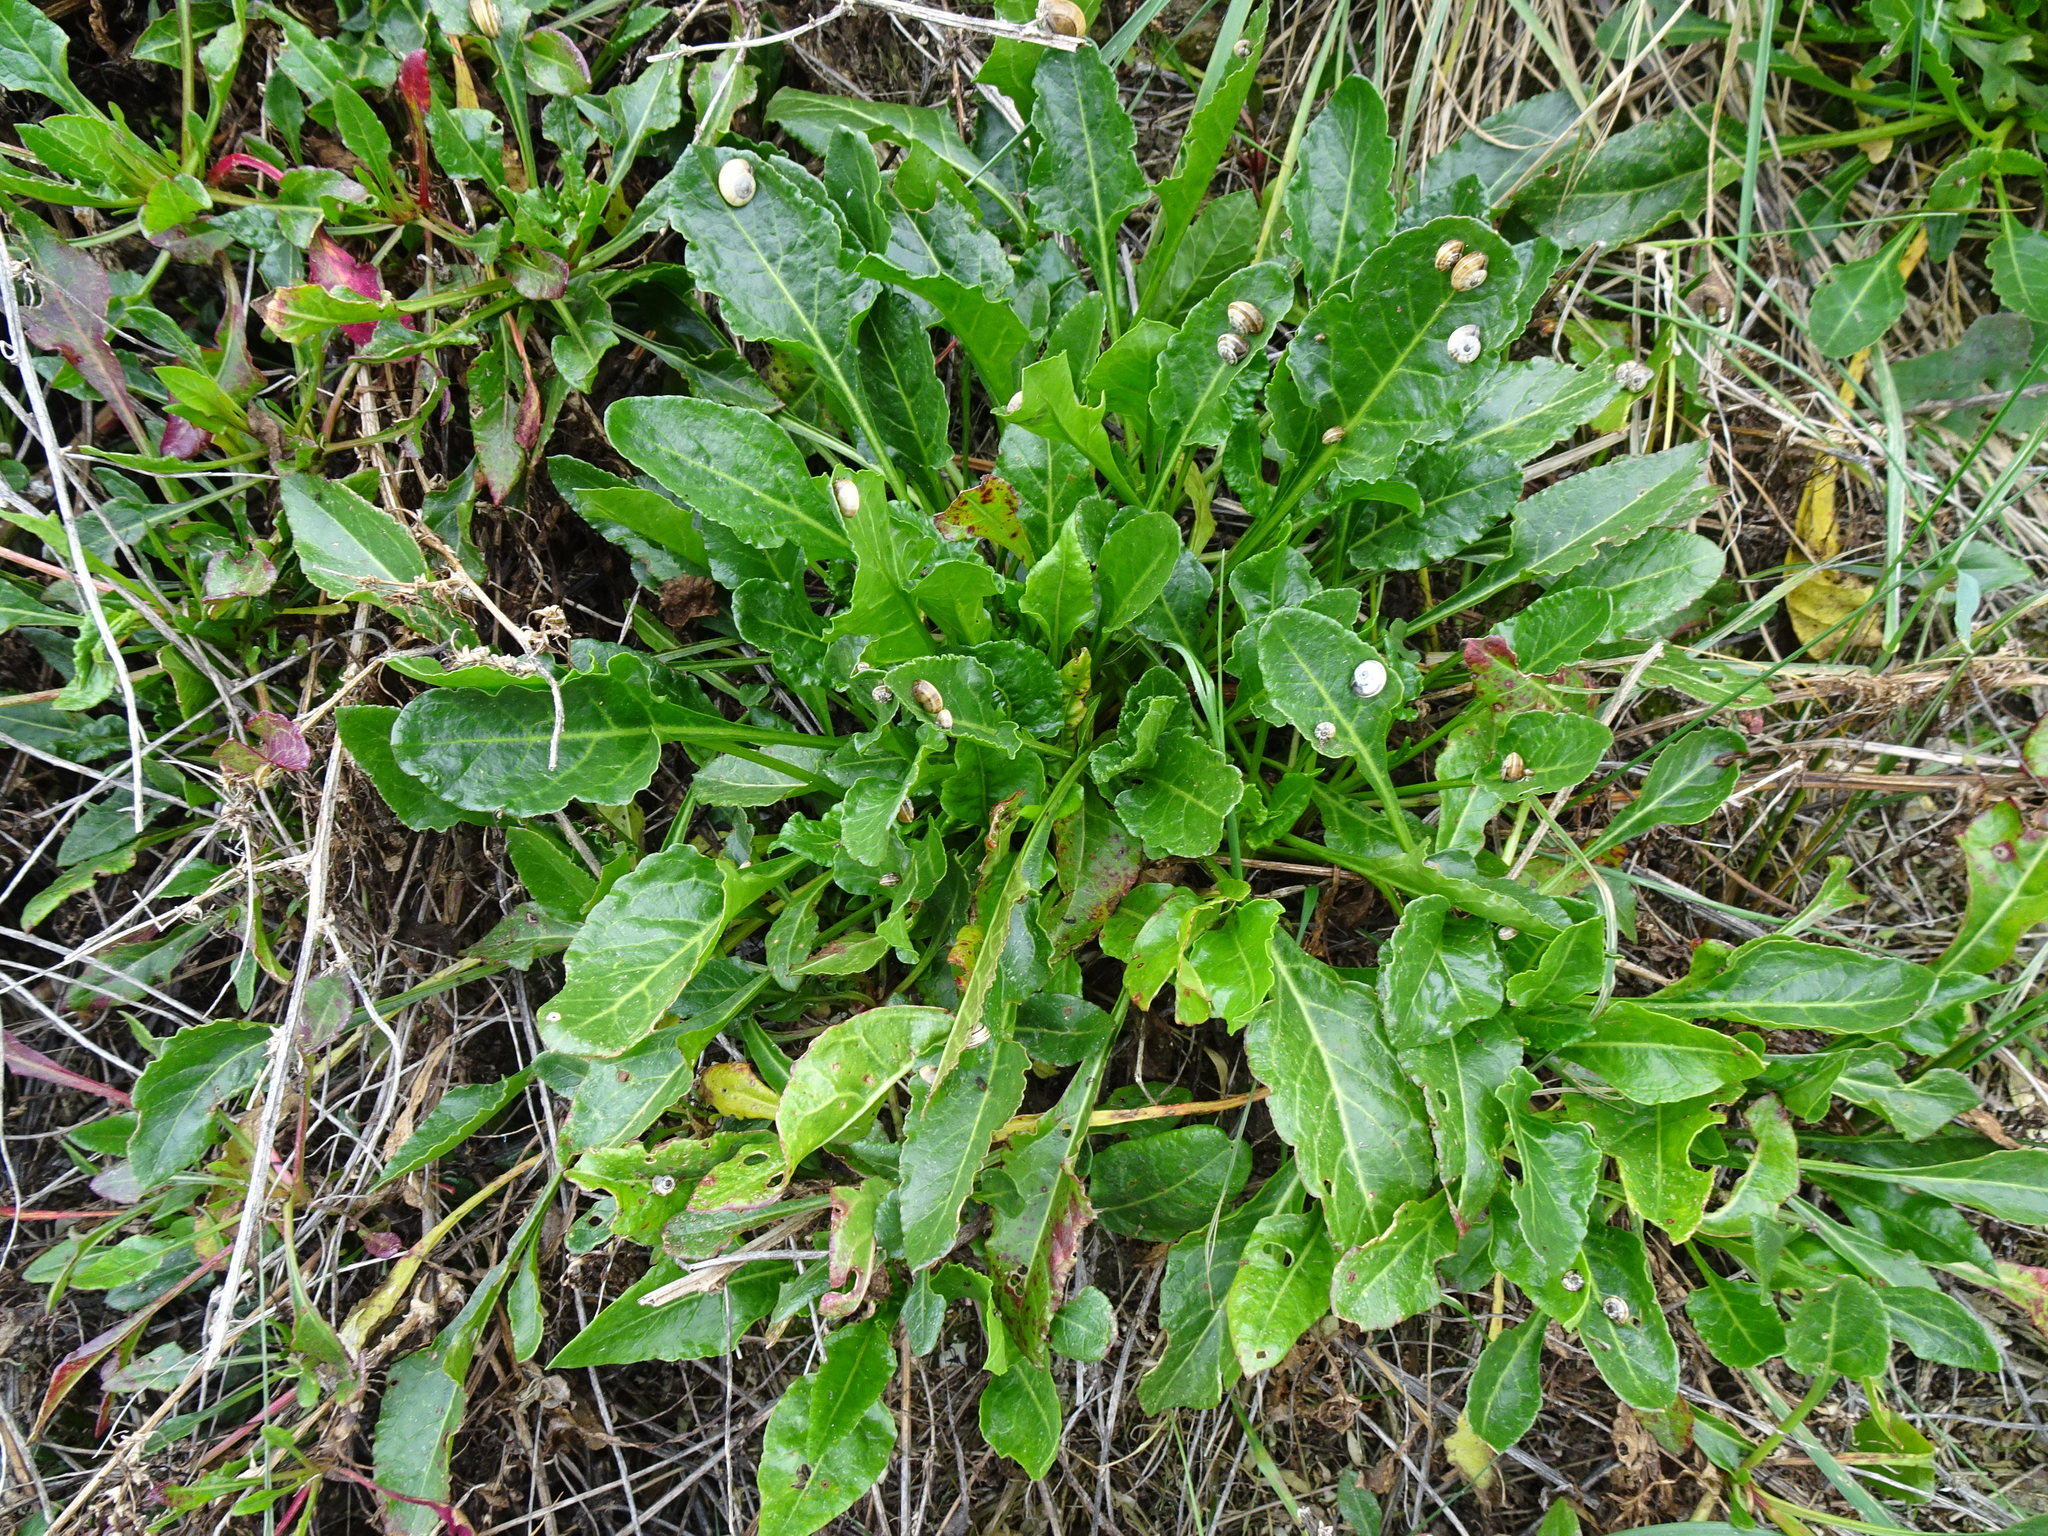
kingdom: Plantae
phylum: Tracheophyta
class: Magnoliopsida
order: Caryophyllales
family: Amaranthaceae
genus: Beta
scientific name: Beta vulgaris
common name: Beet
